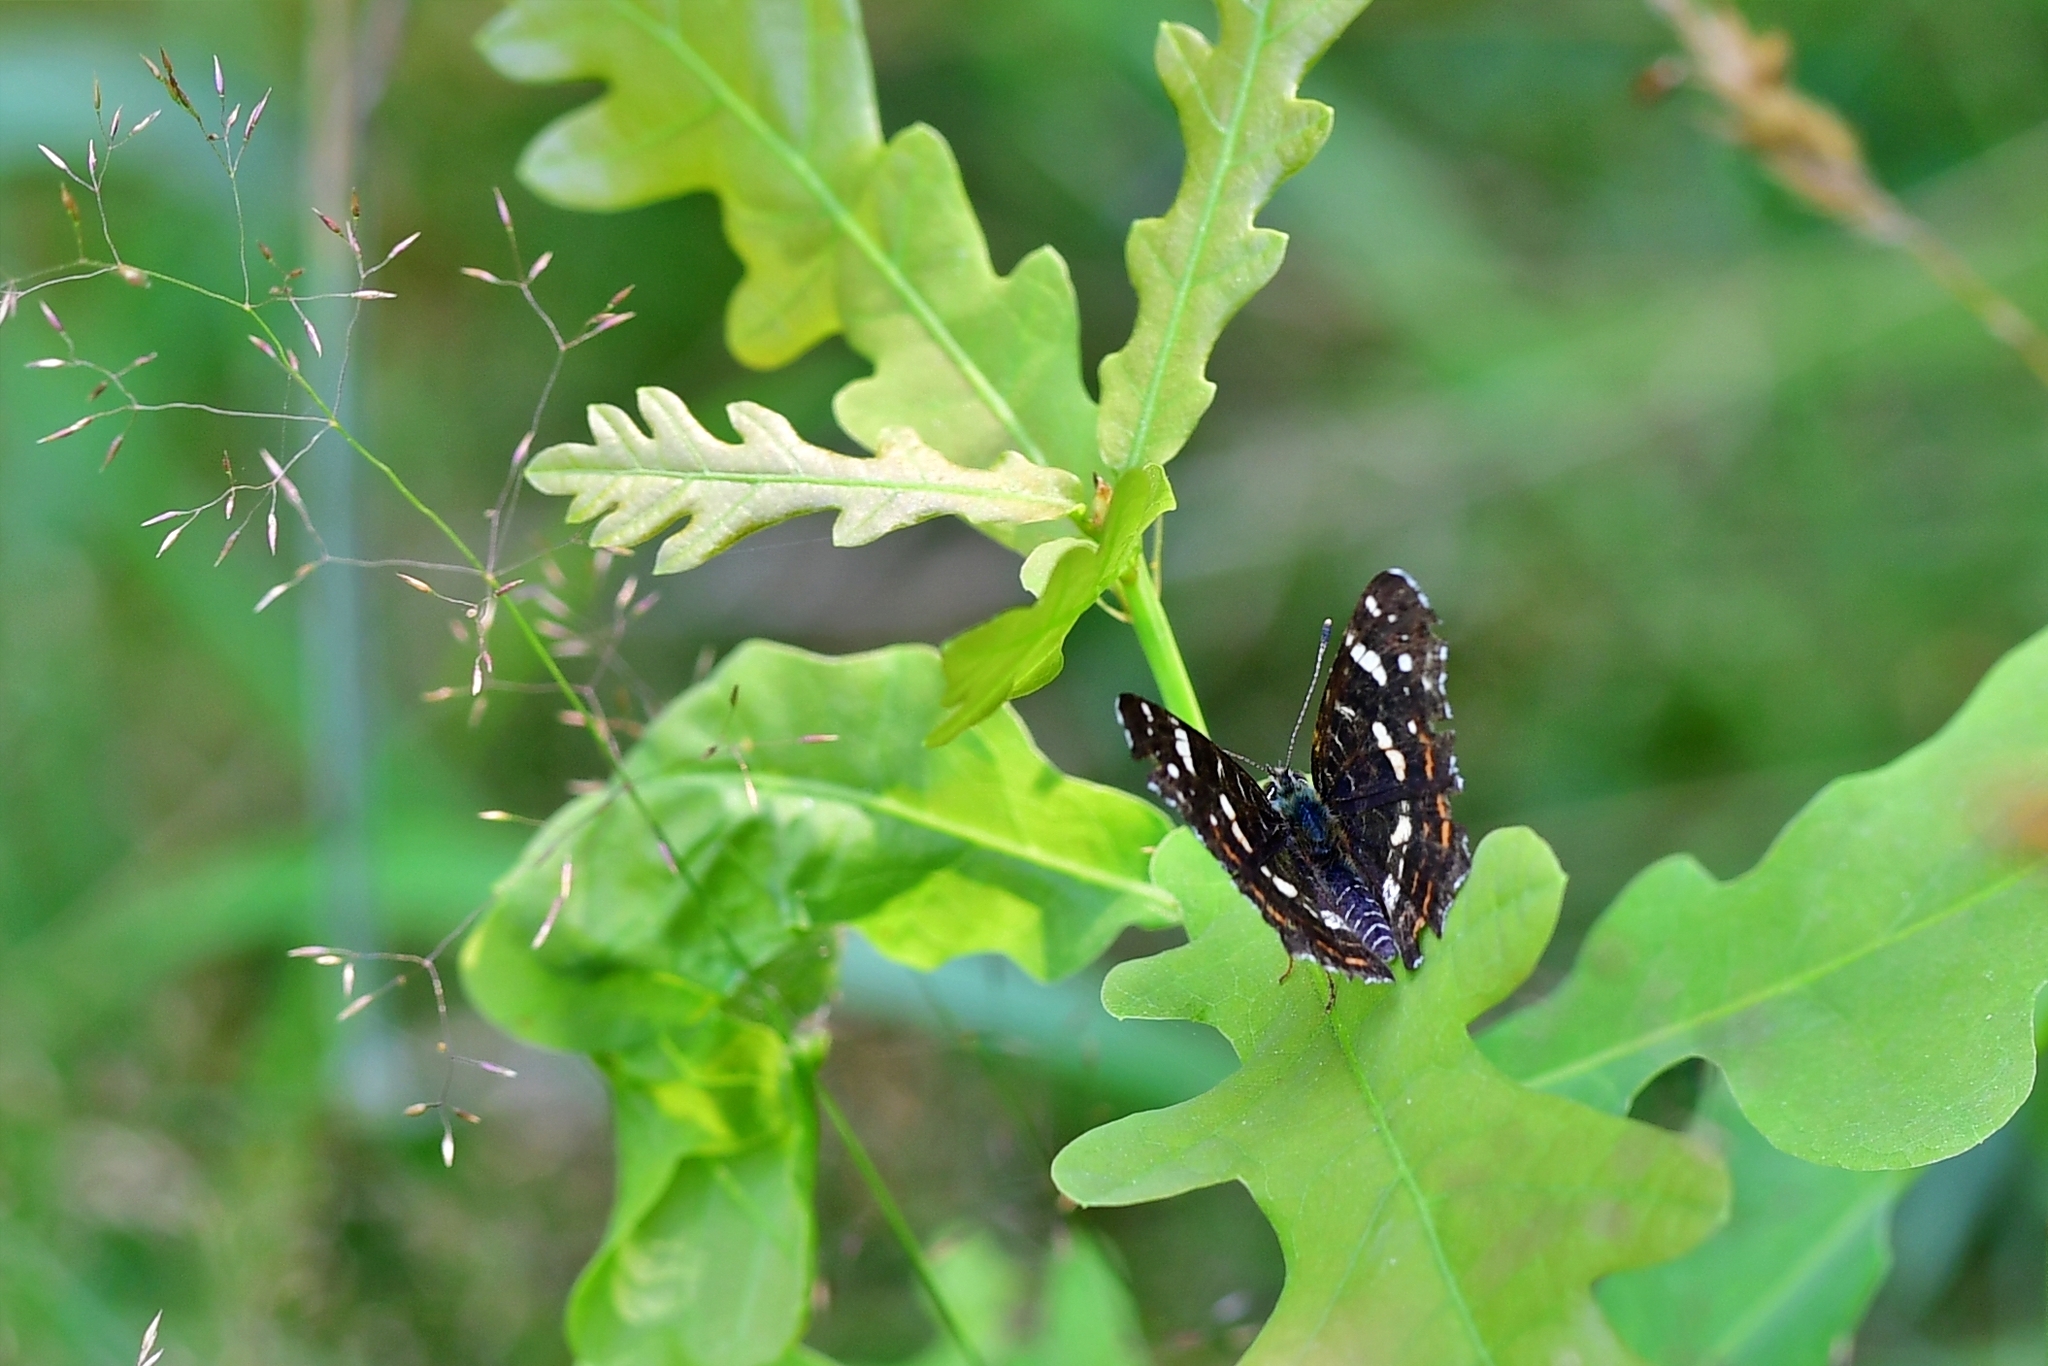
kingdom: Animalia
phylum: Arthropoda
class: Insecta
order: Lepidoptera
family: Nymphalidae
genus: Araschnia
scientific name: Araschnia levana
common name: Map butterfly
